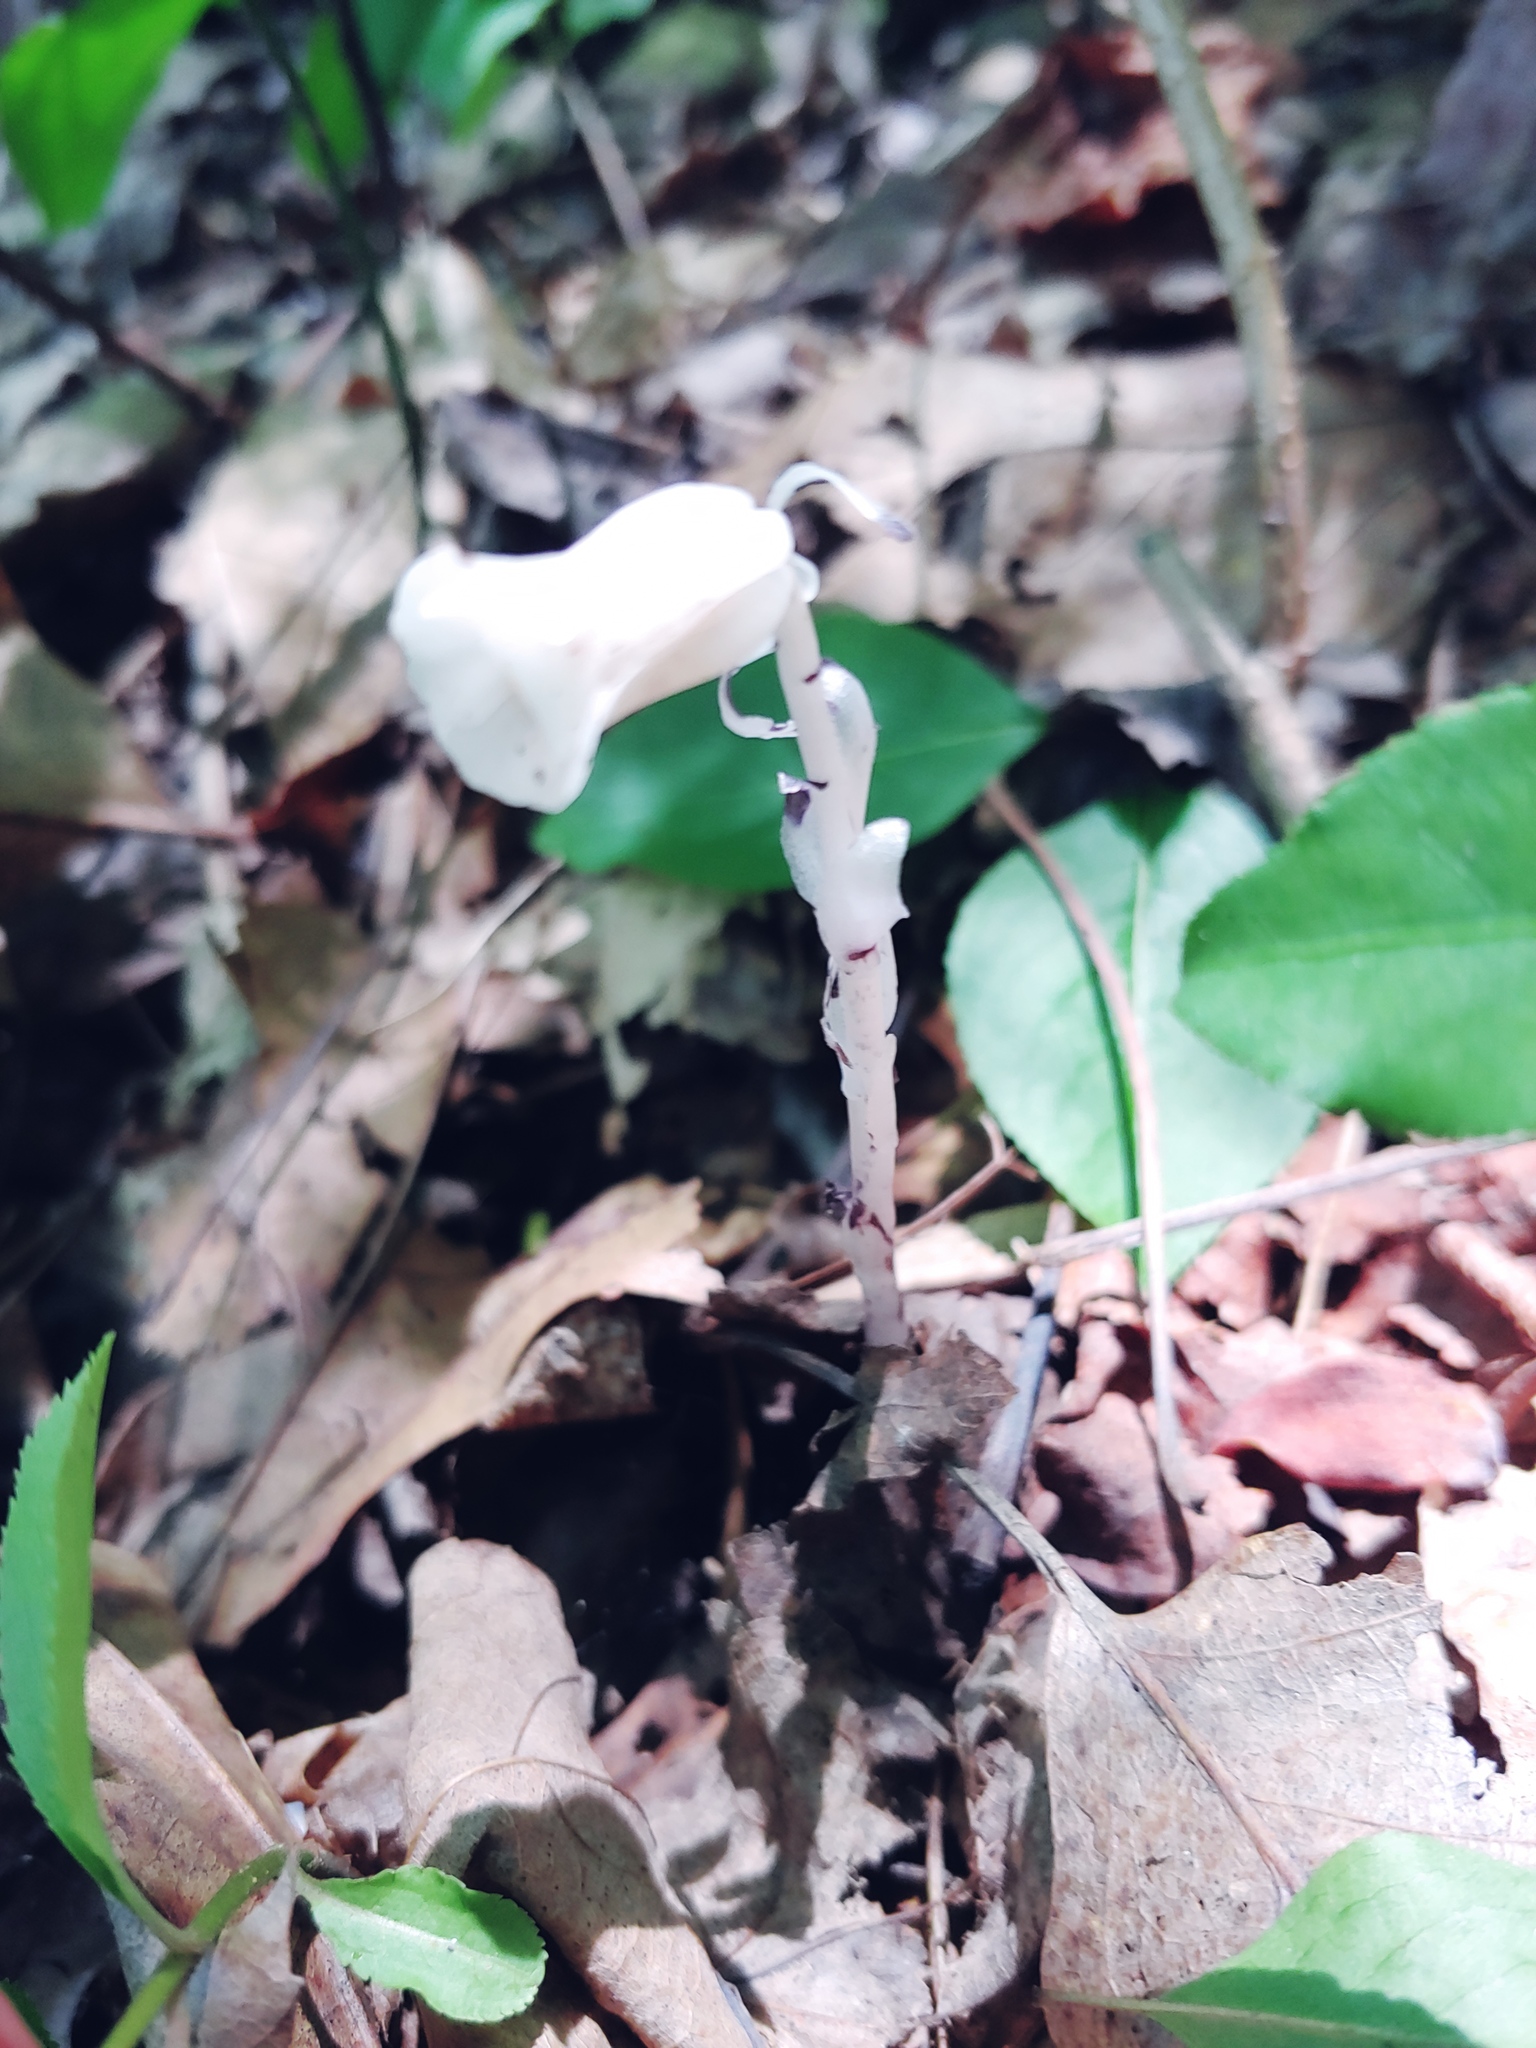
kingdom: Plantae
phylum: Tracheophyta
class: Magnoliopsida
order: Ericales
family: Ericaceae
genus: Monotropa
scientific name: Monotropa uniflora
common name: Convulsion root
